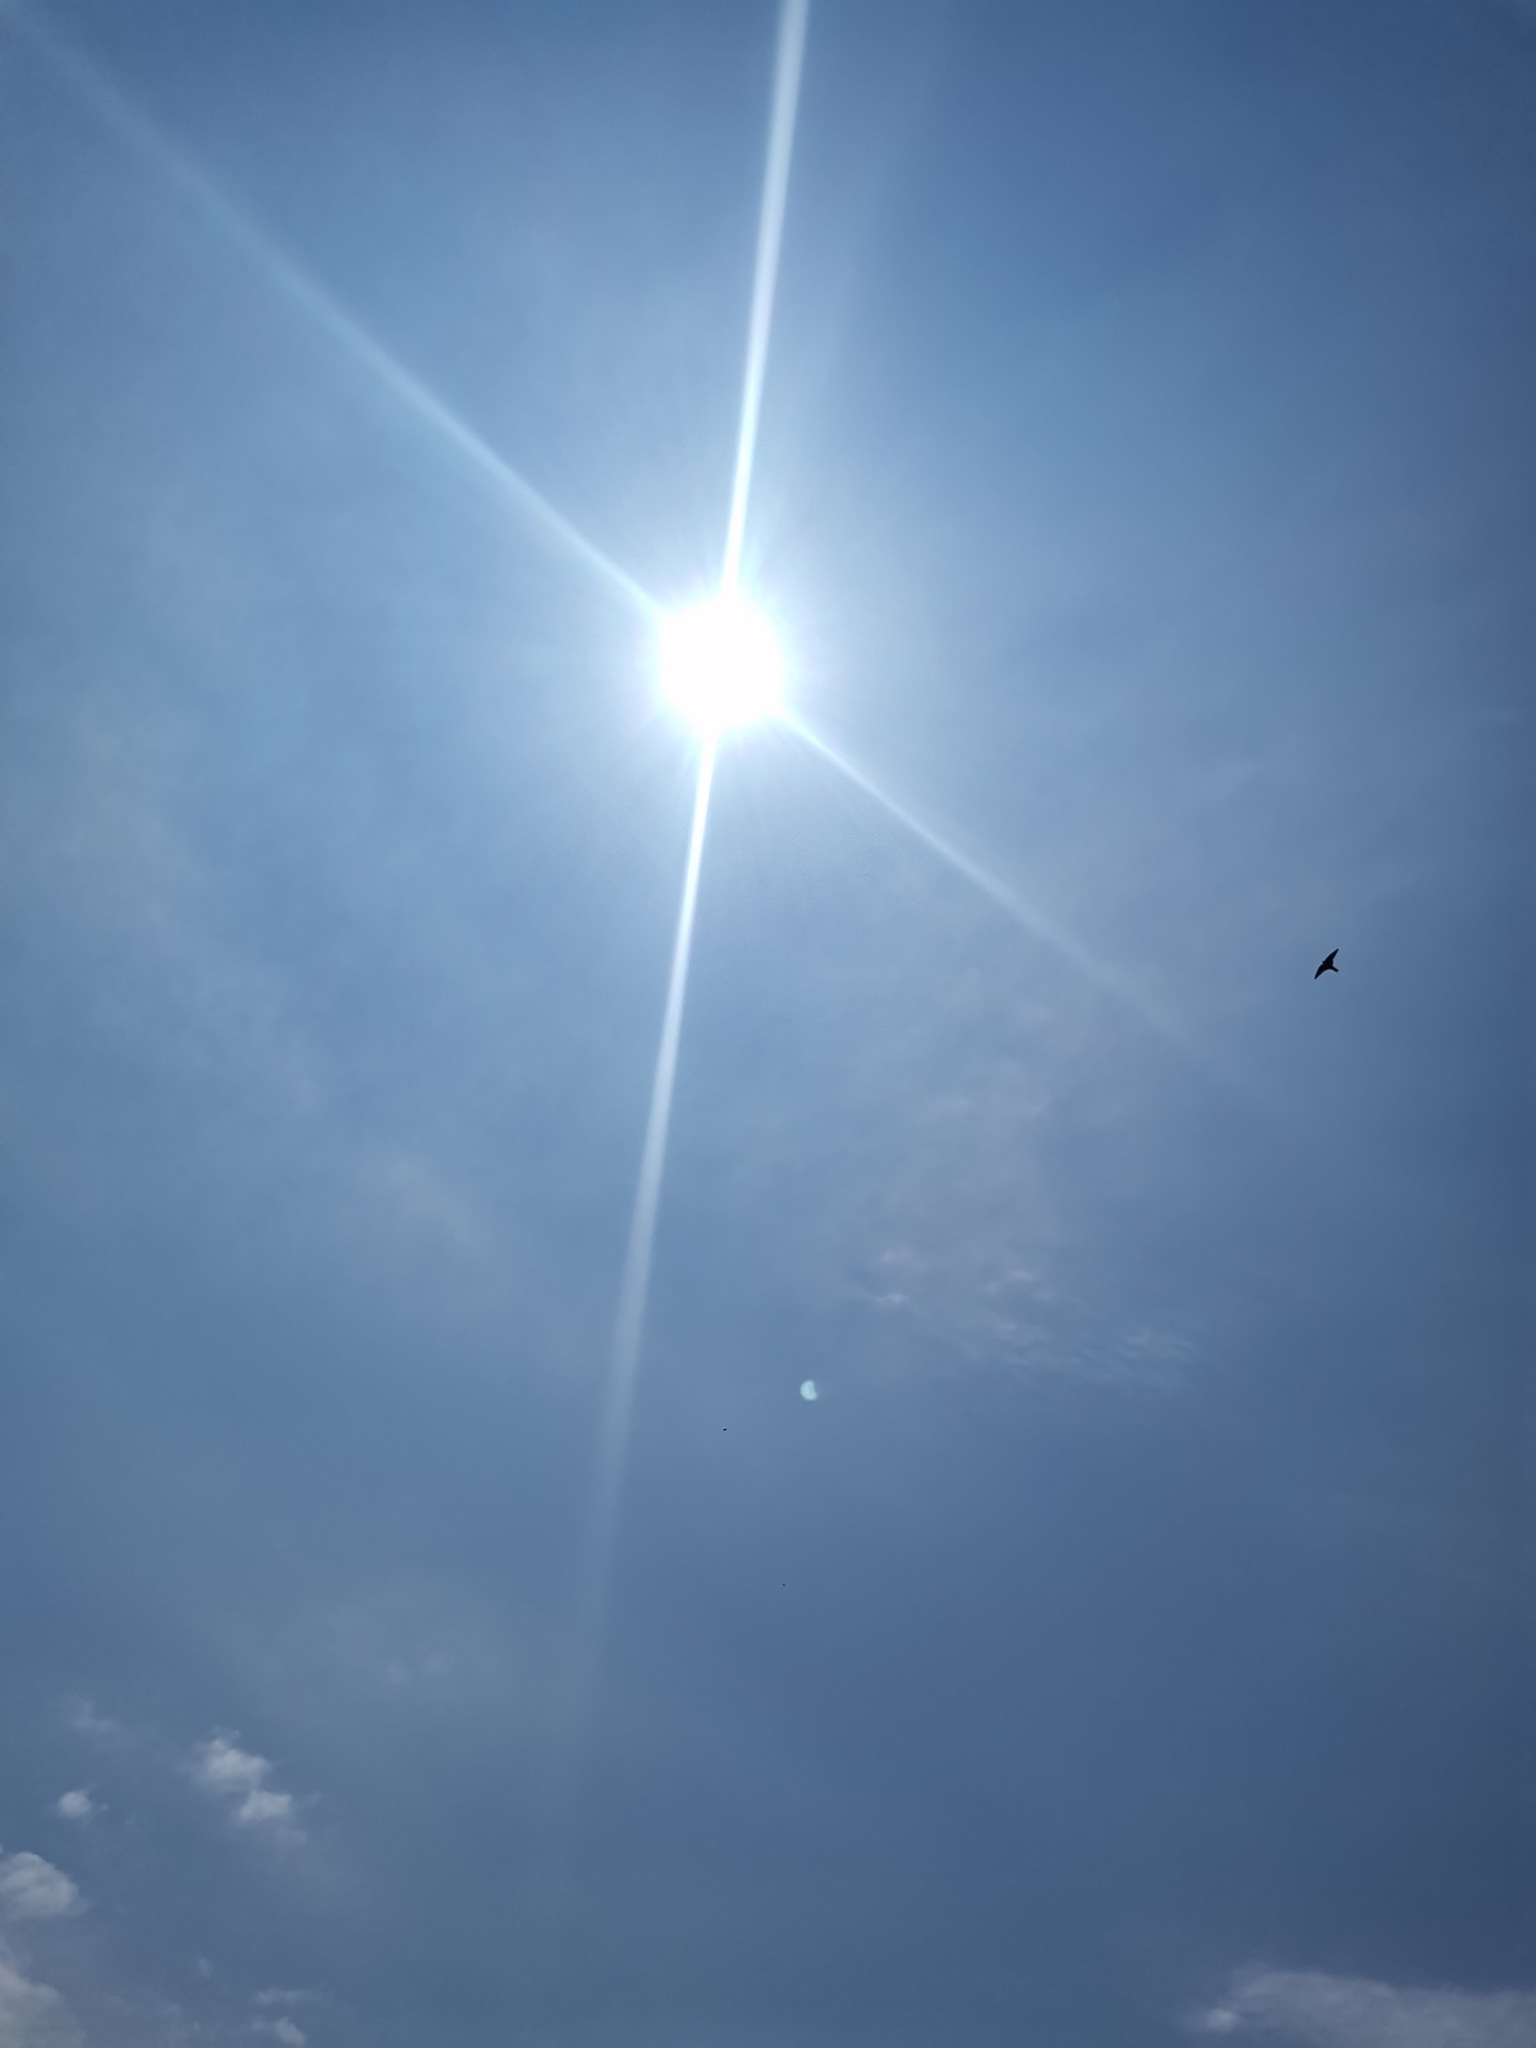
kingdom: Animalia
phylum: Chordata
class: Aves
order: Passeriformes
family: Hirundinidae
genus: Hirundo
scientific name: Hirundo rustica
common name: Barn swallow
